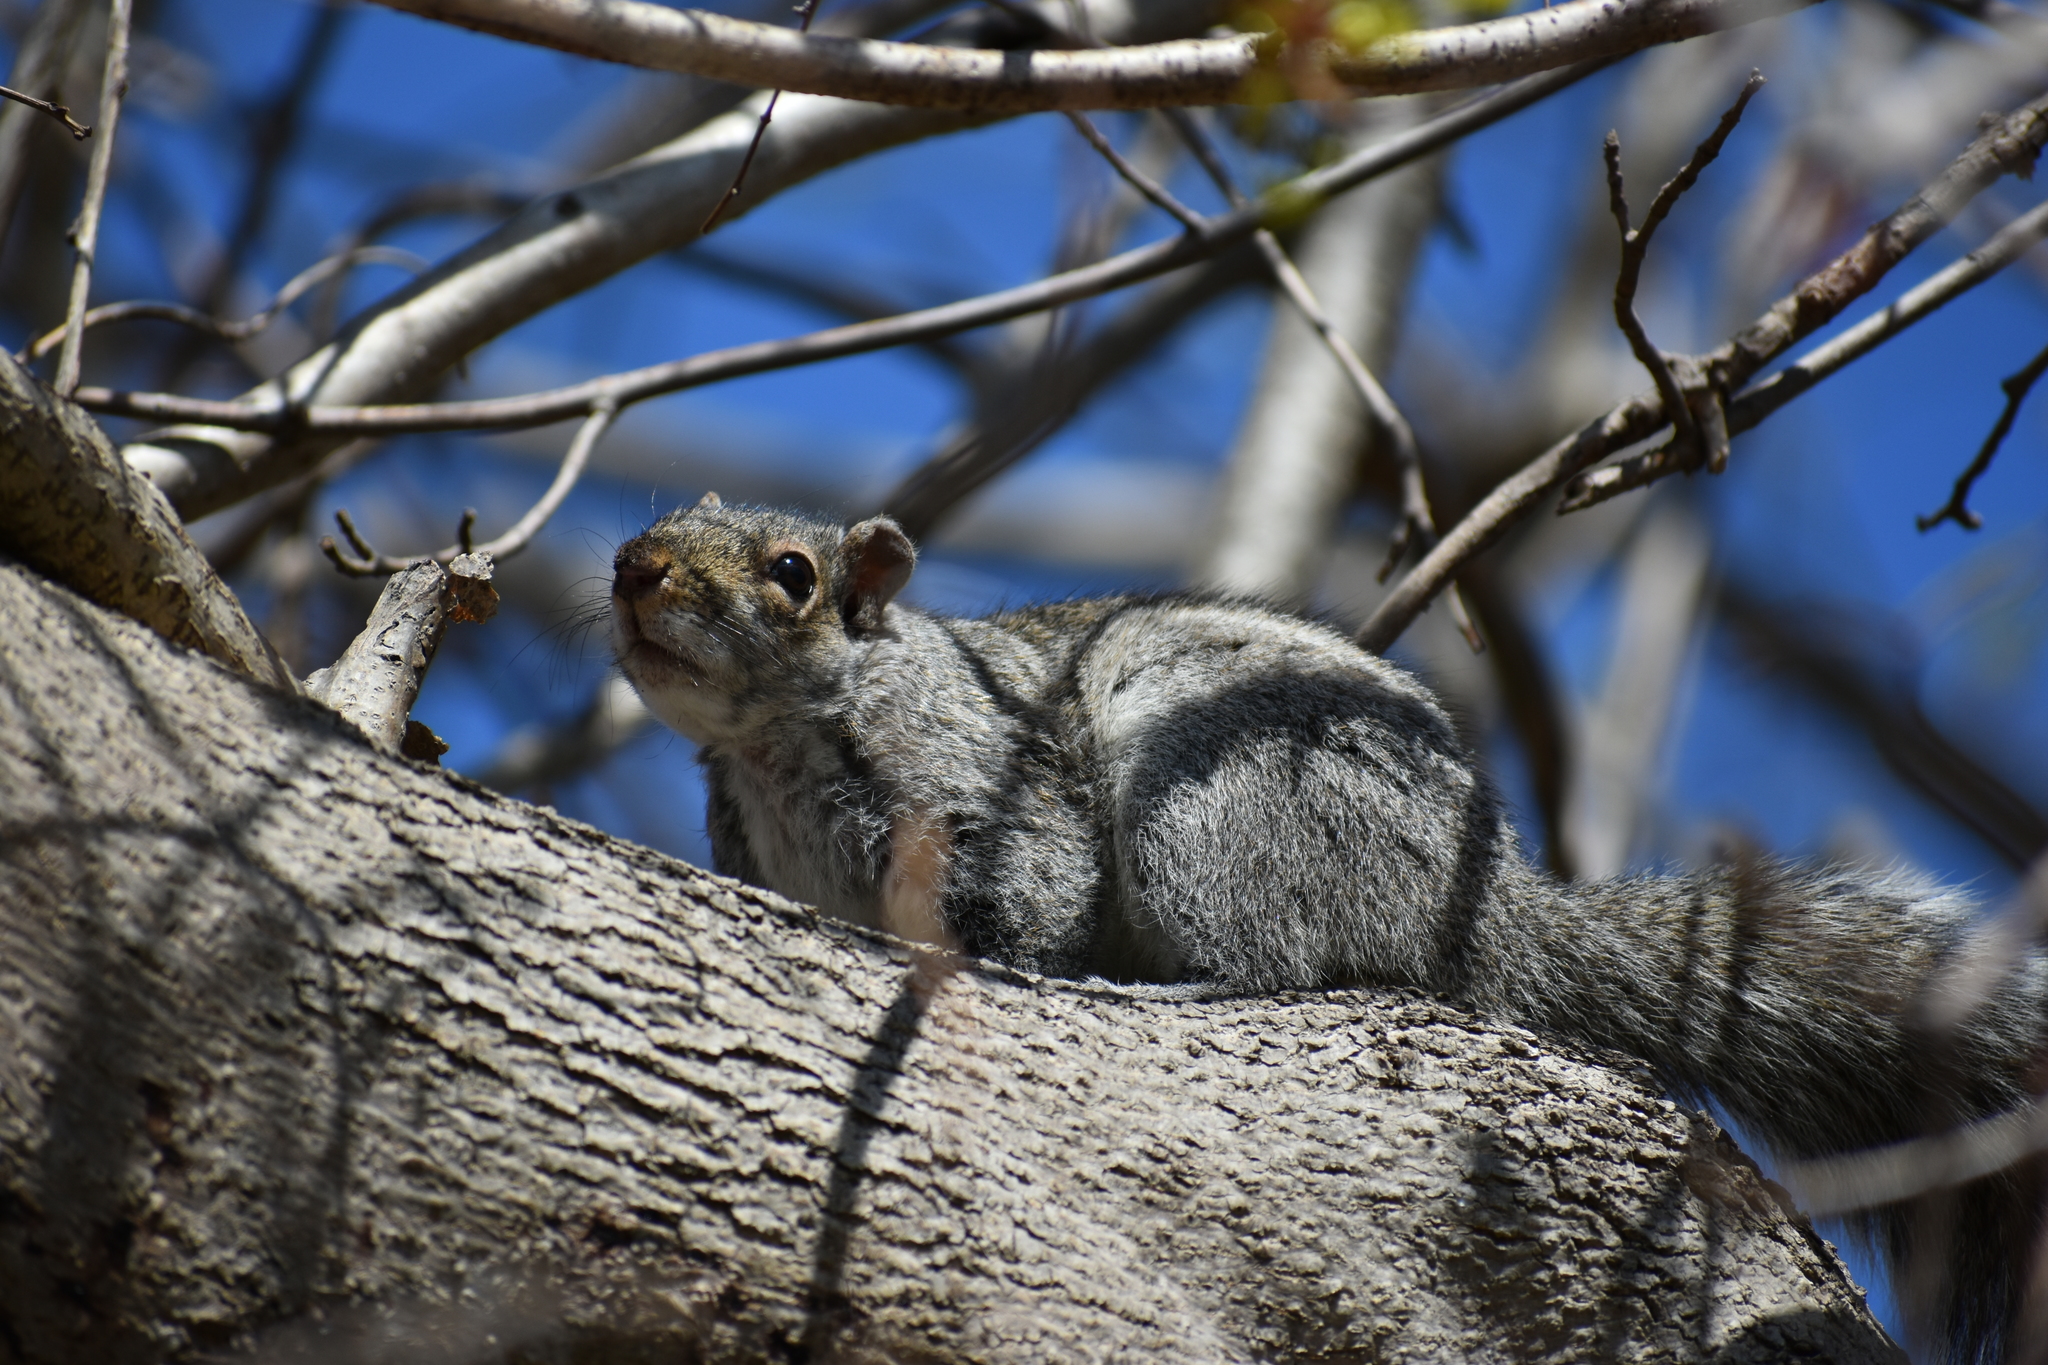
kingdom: Animalia
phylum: Chordata
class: Mammalia
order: Rodentia
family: Sciuridae
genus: Sciurus
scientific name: Sciurus carolinensis
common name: Eastern gray squirrel
